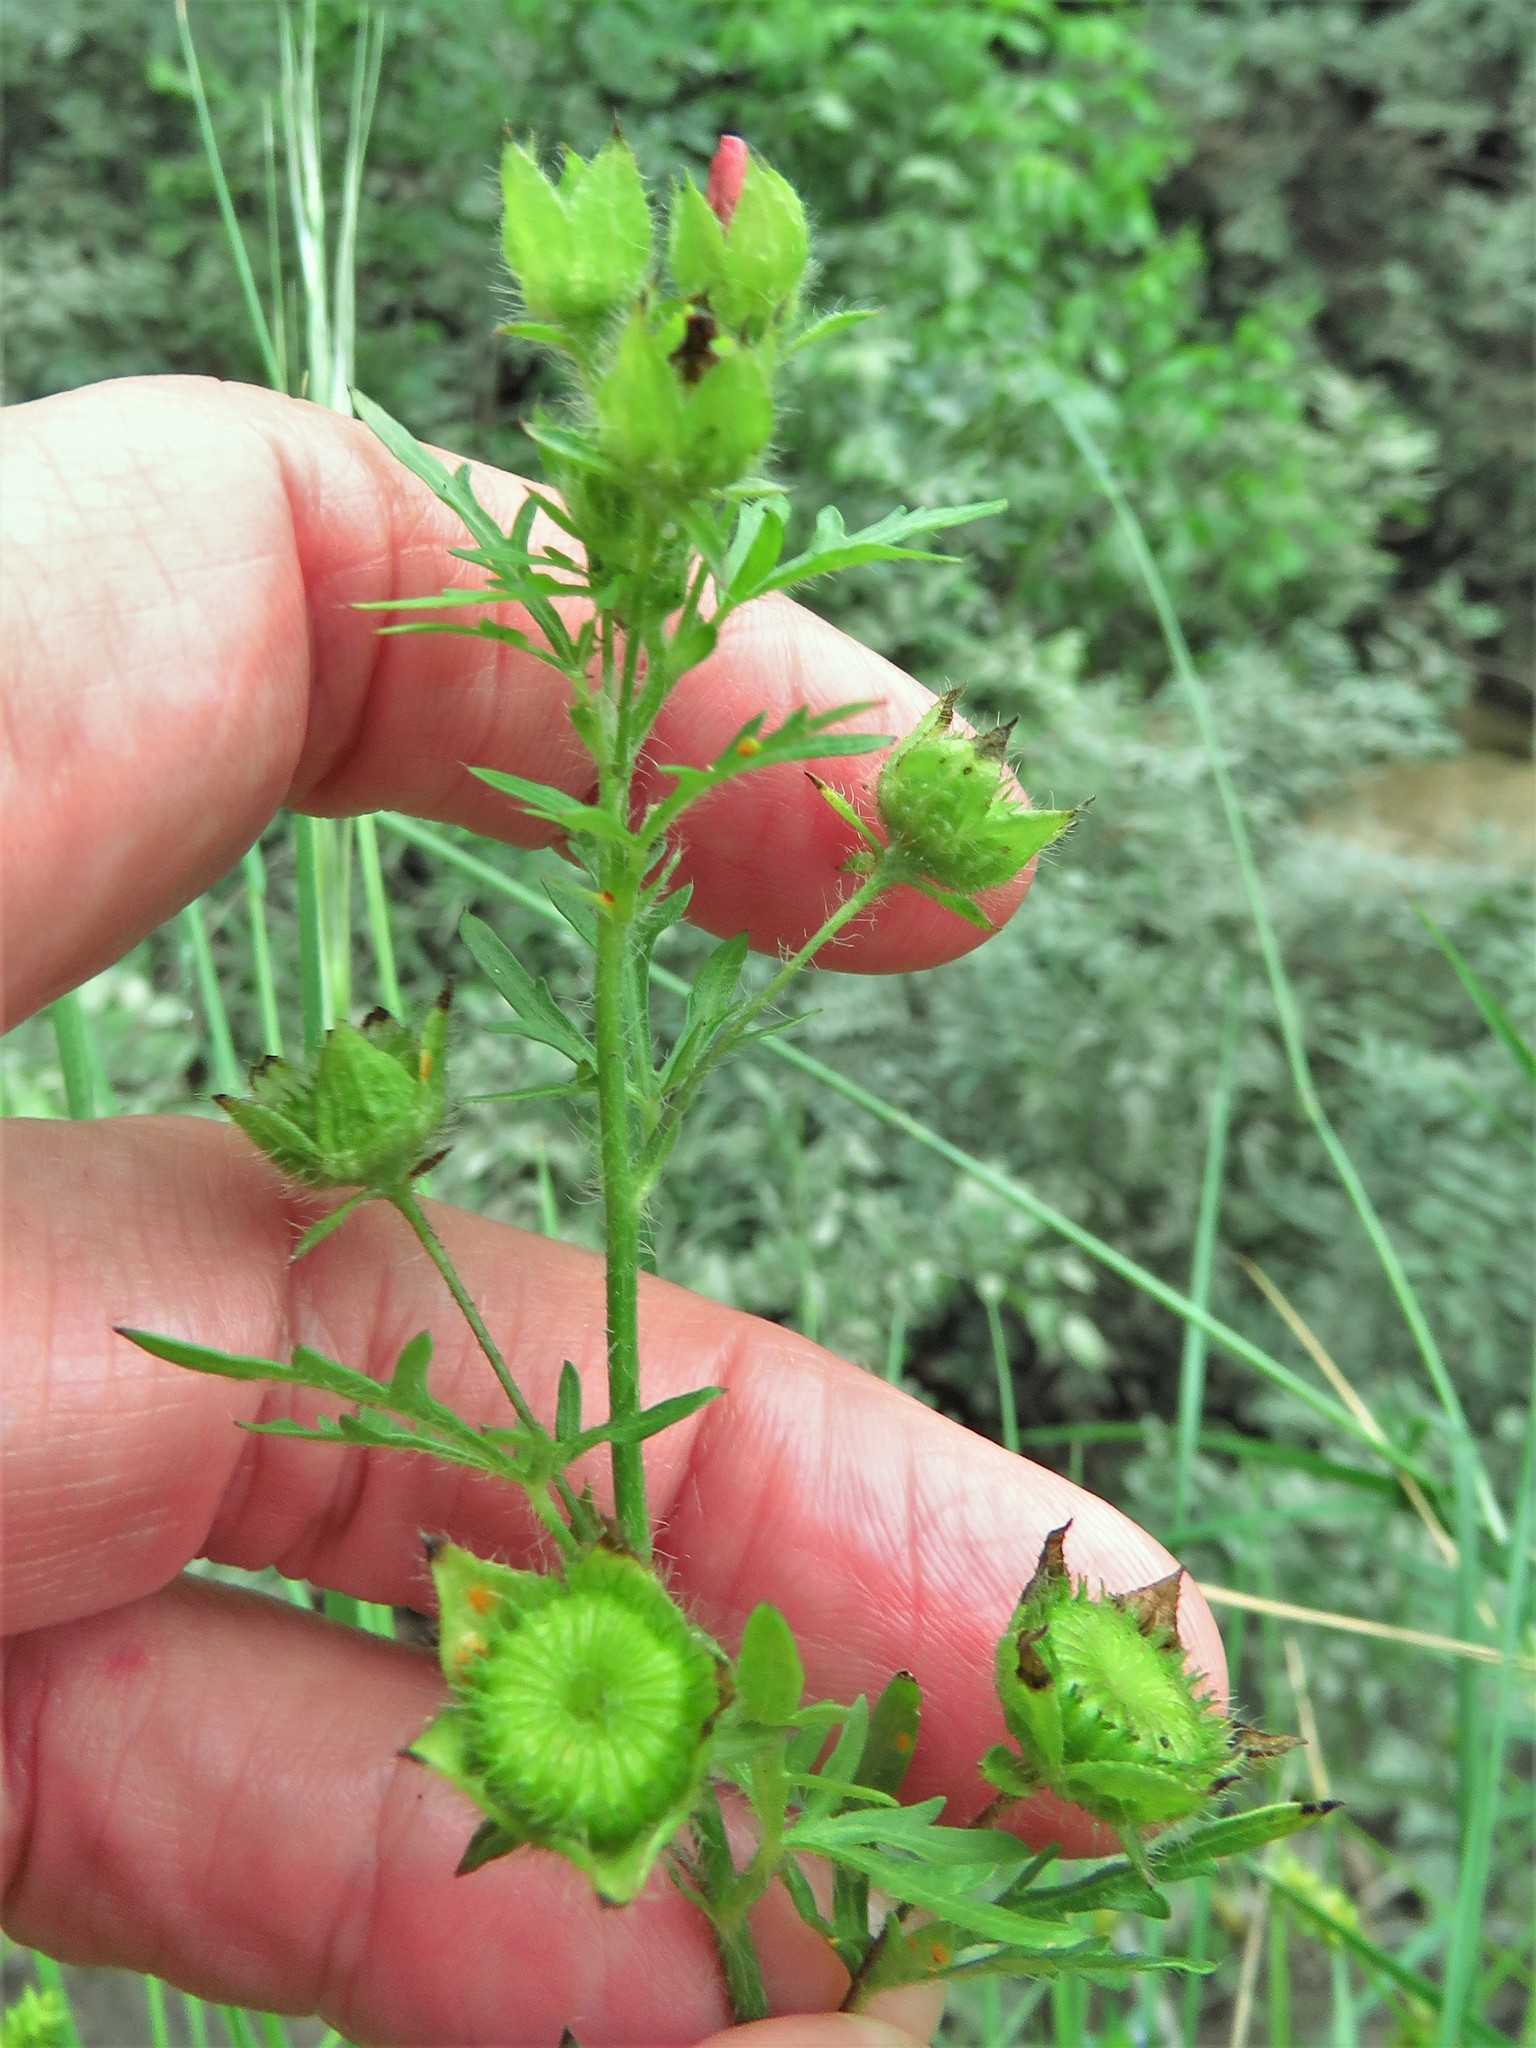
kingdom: Plantae
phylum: Tracheophyta
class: Magnoliopsida
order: Malvales
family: Malvaceae
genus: Modiola
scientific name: Modiola caroliniana
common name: Carolina bristlemallow
